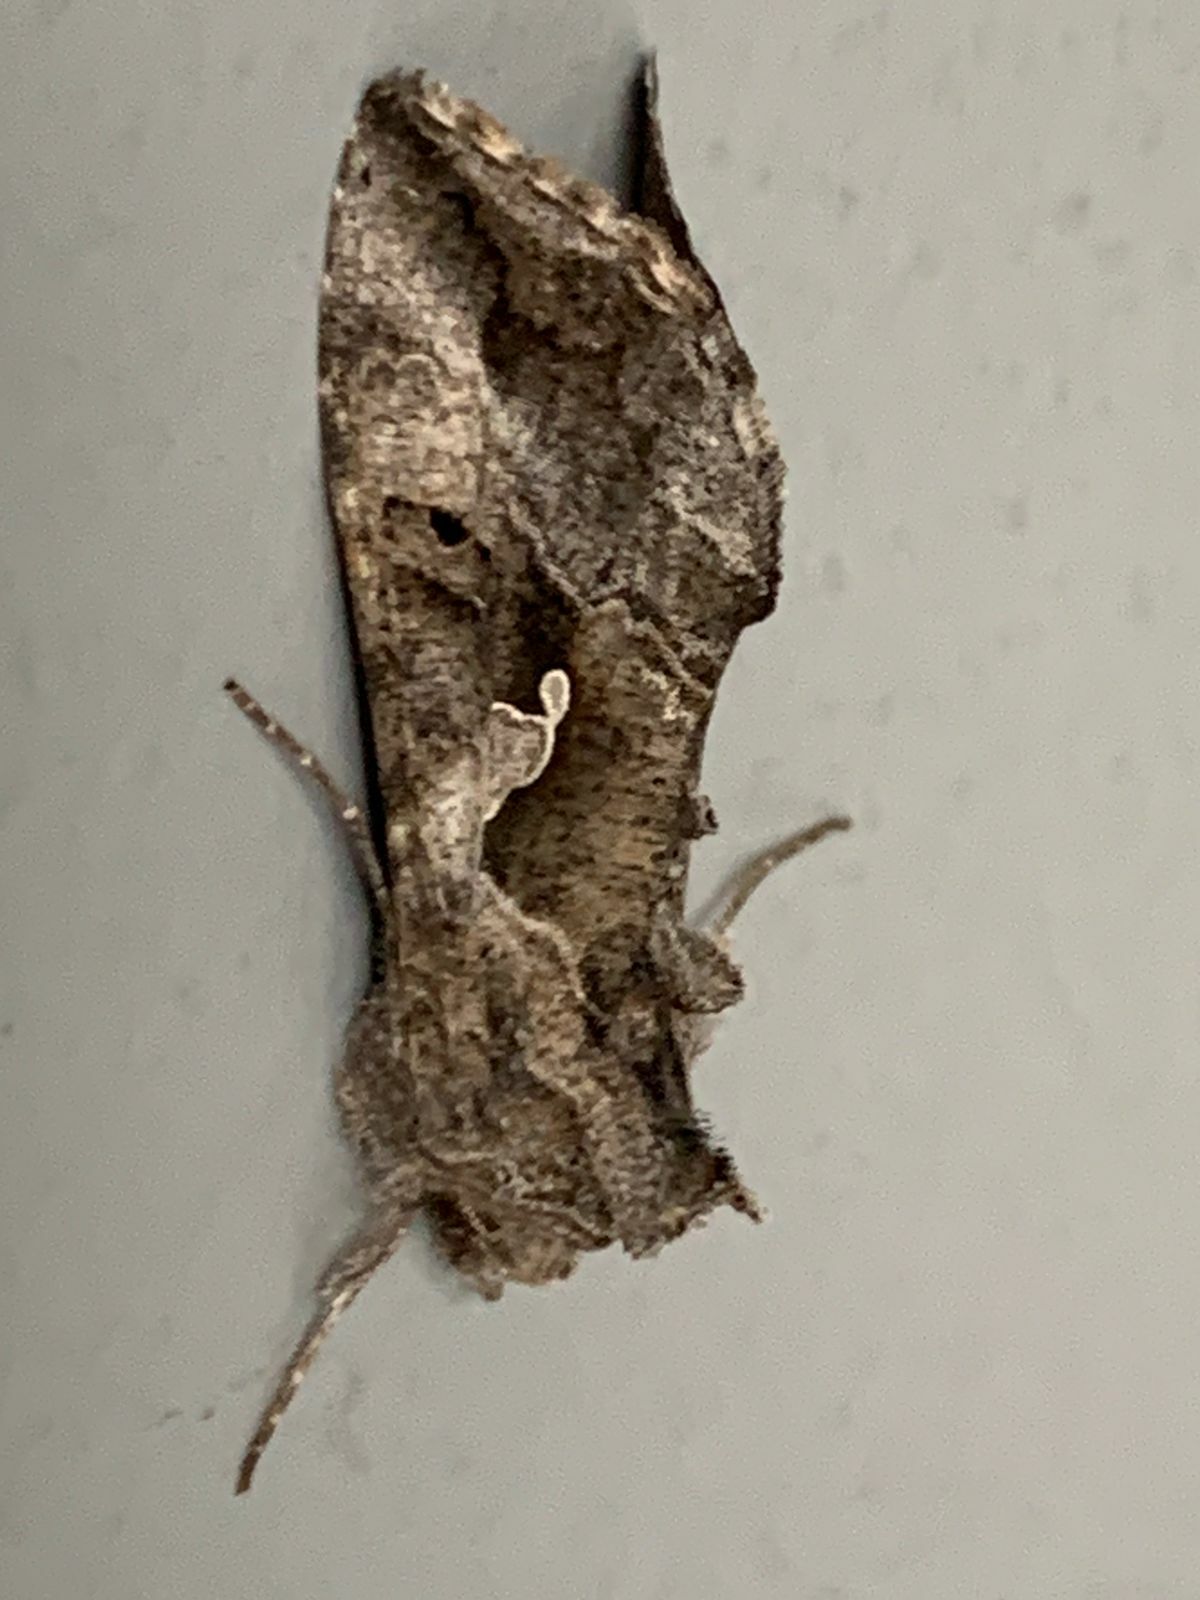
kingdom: Animalia
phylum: Arthropoda
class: Insecta
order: Lepidoptera
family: Noctuidae
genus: Autoplusia
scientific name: Autoplusia gammoides
